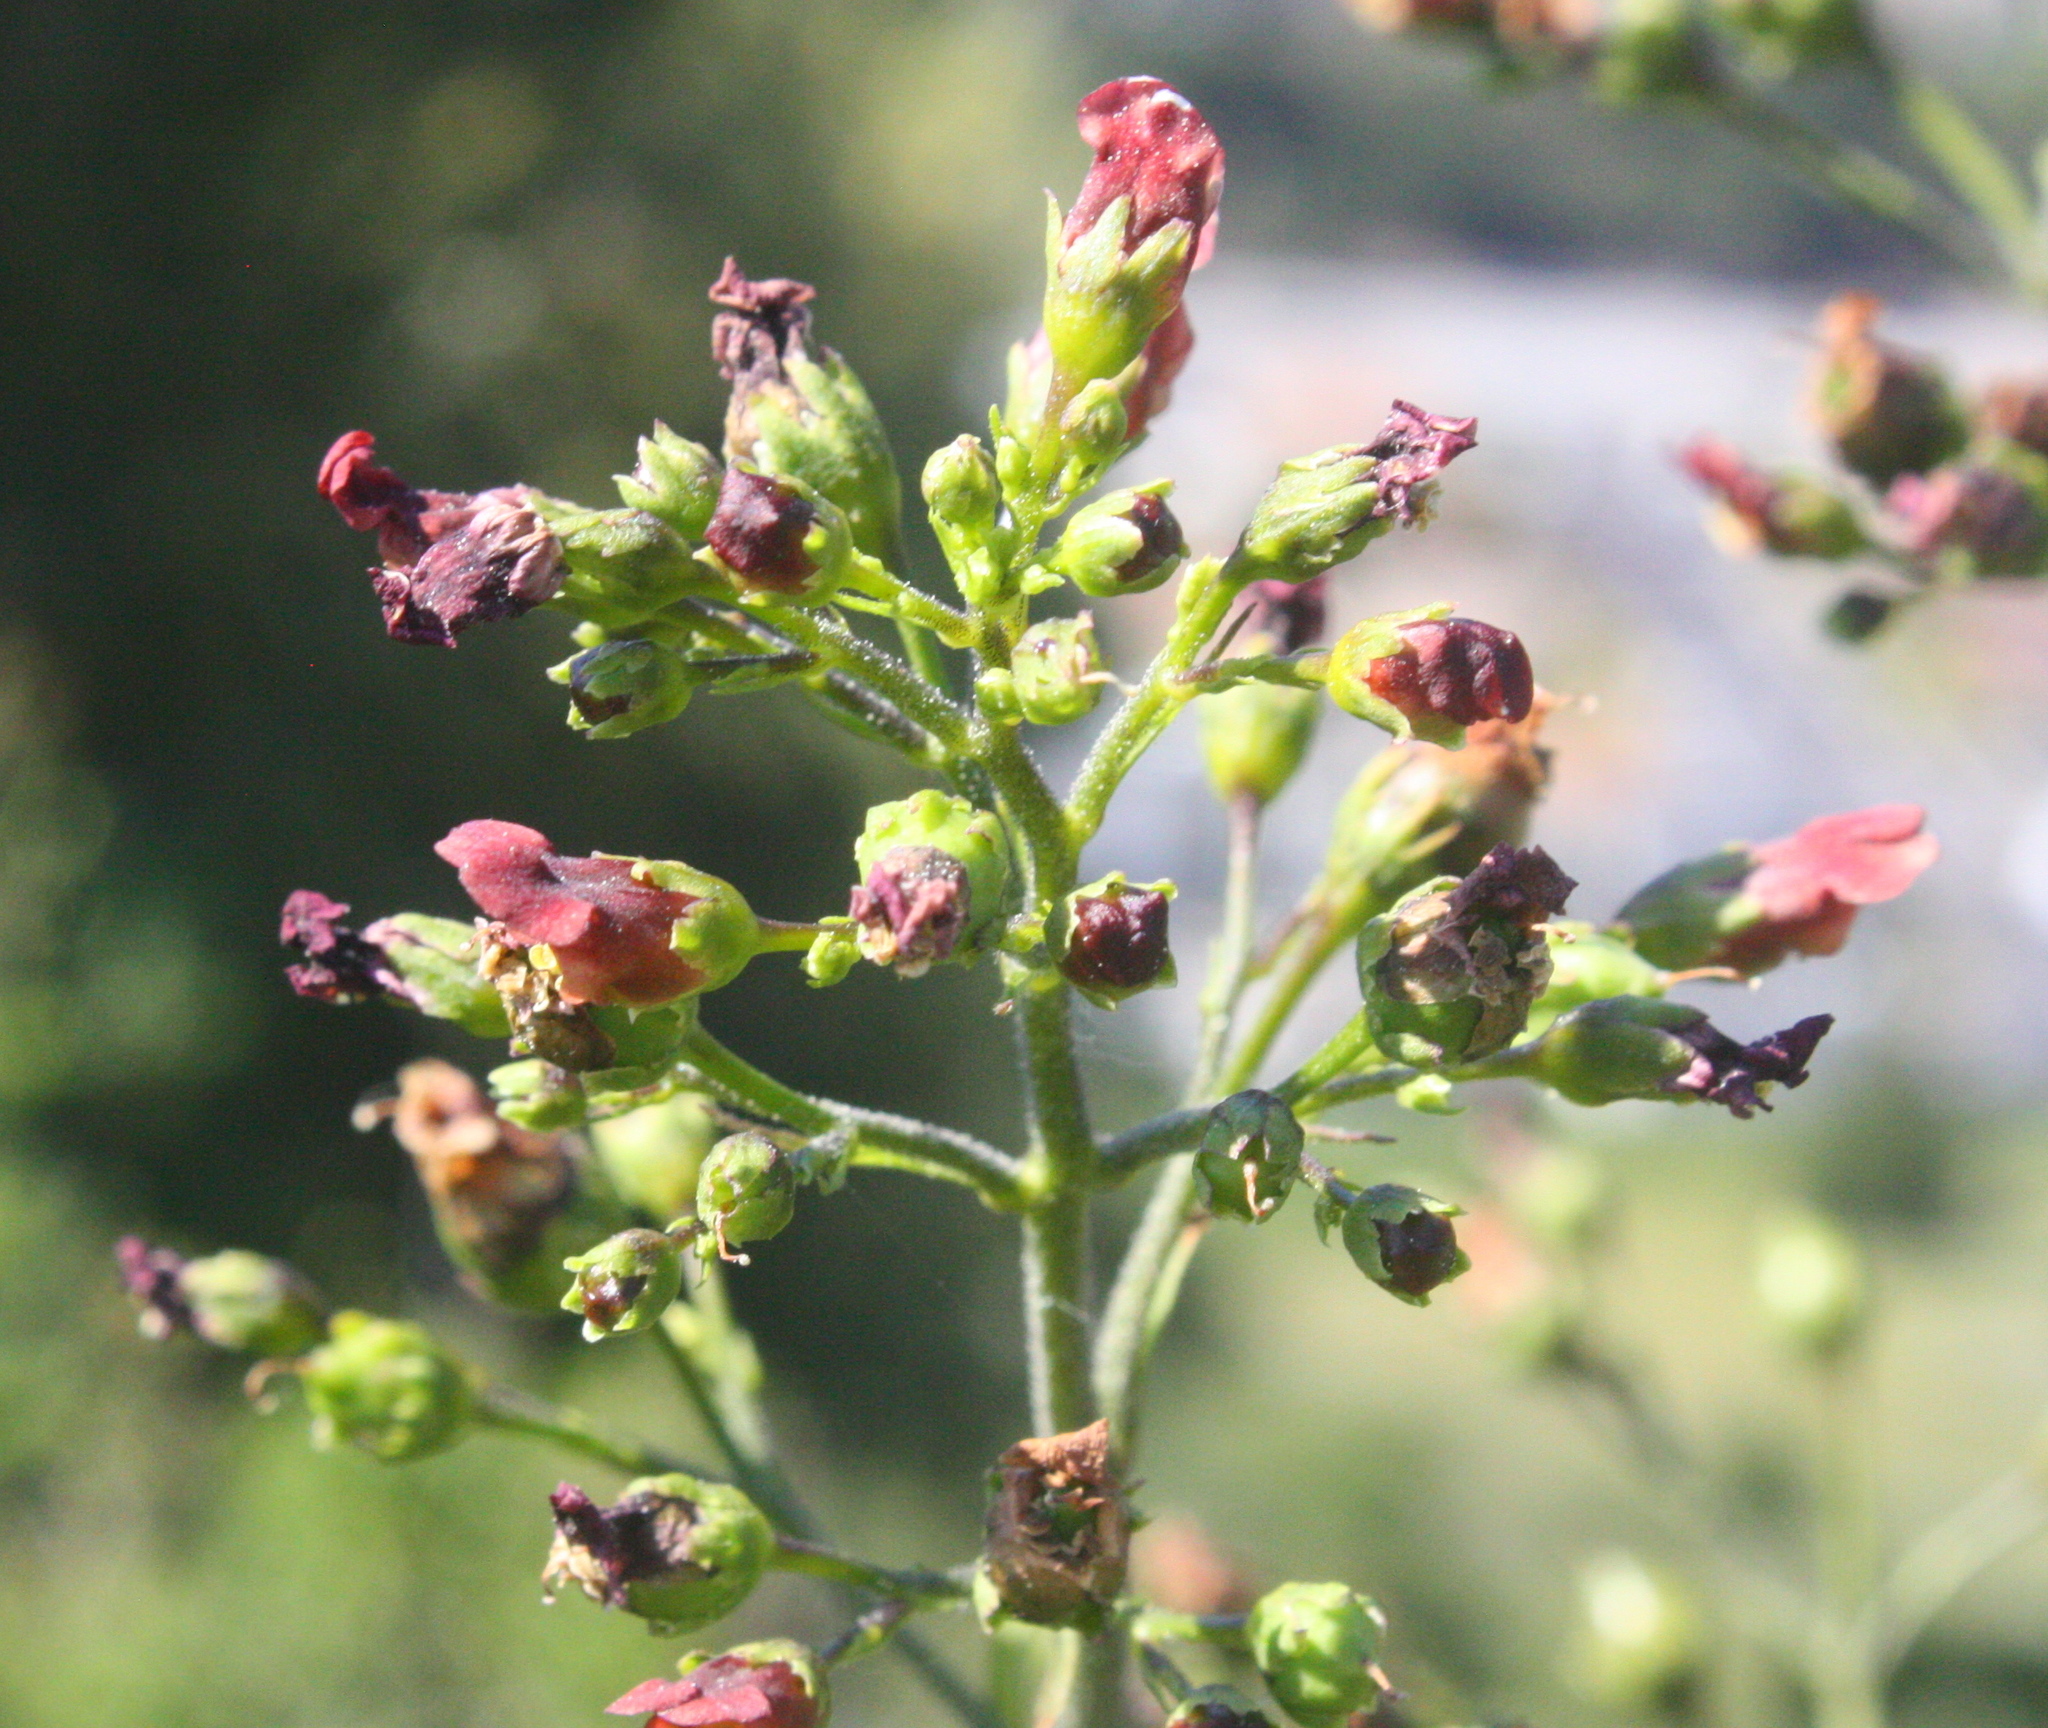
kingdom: Plantae
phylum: Tracheophyta
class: Magnoliopsida
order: Lamiales
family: Scrophulariaceae
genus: Scrophularia
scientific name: Scrophularia californica
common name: California figwort
